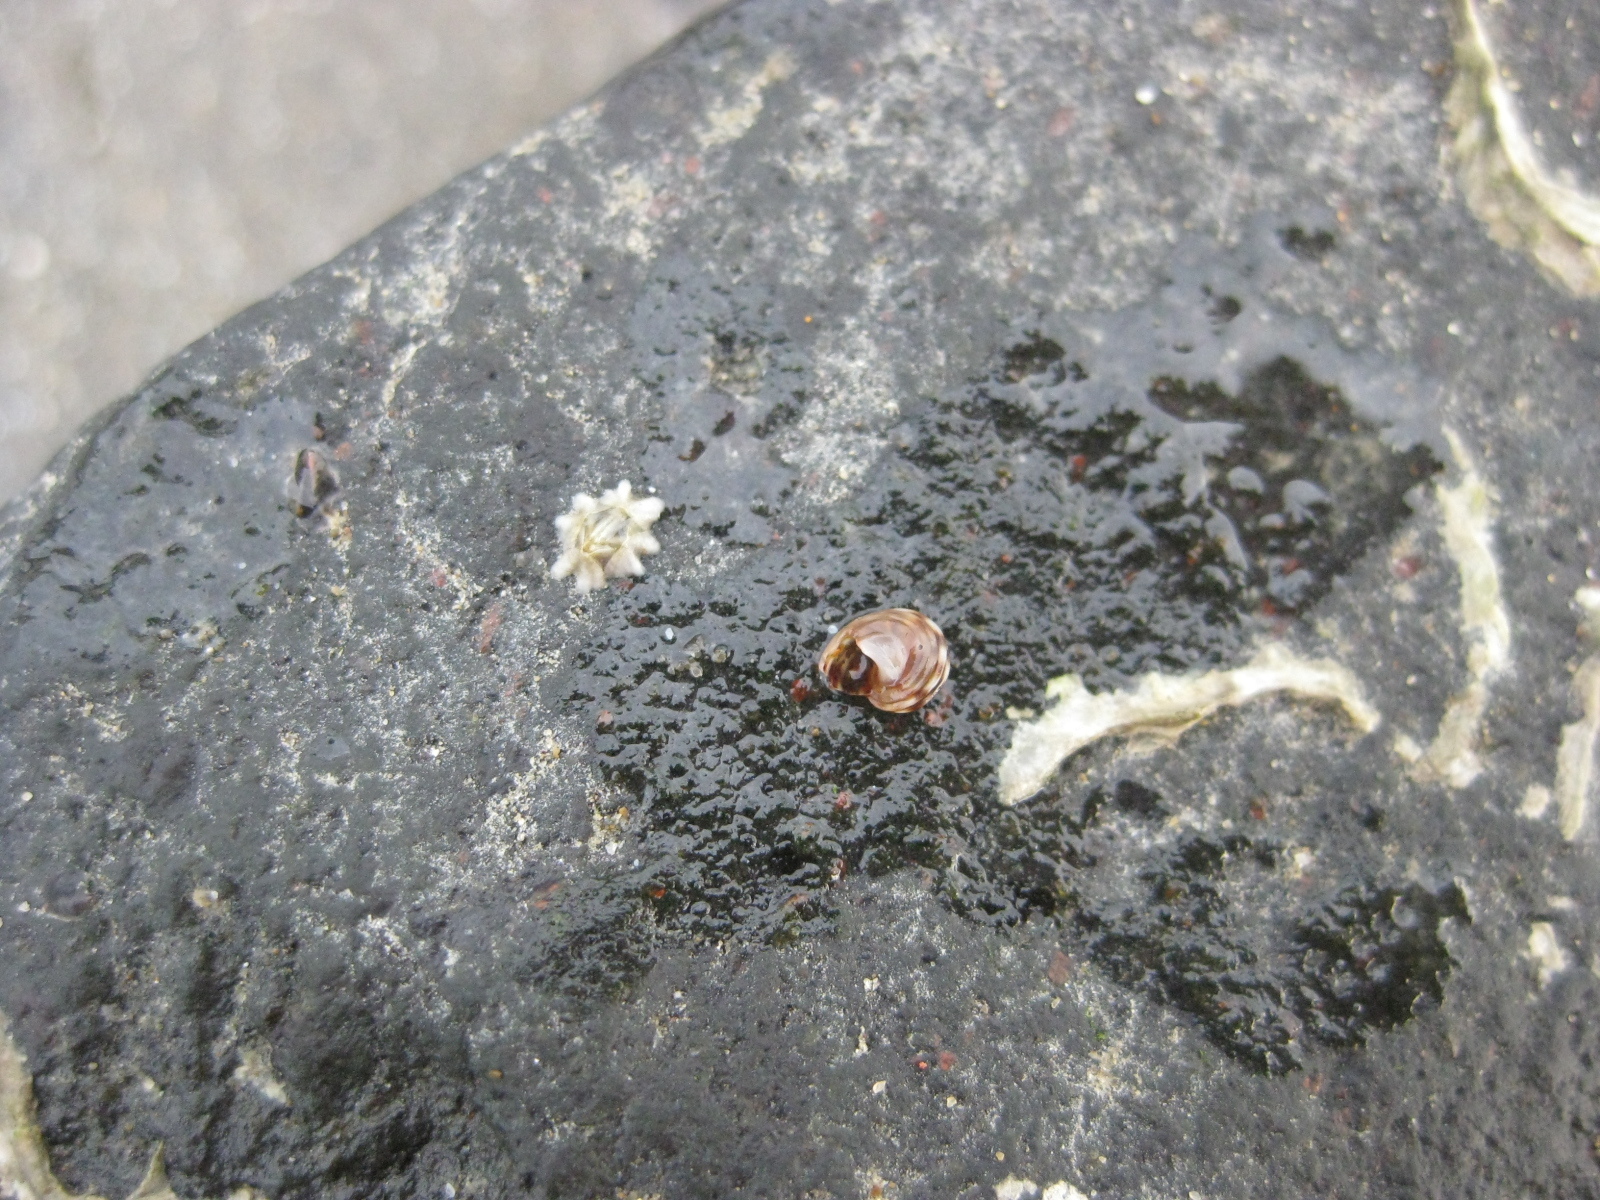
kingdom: Animalia
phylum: Mollusca
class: Gastropoda
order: Littorinimorpha
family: Littorinidae
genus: Risellopsis
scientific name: Risellopsis varia
